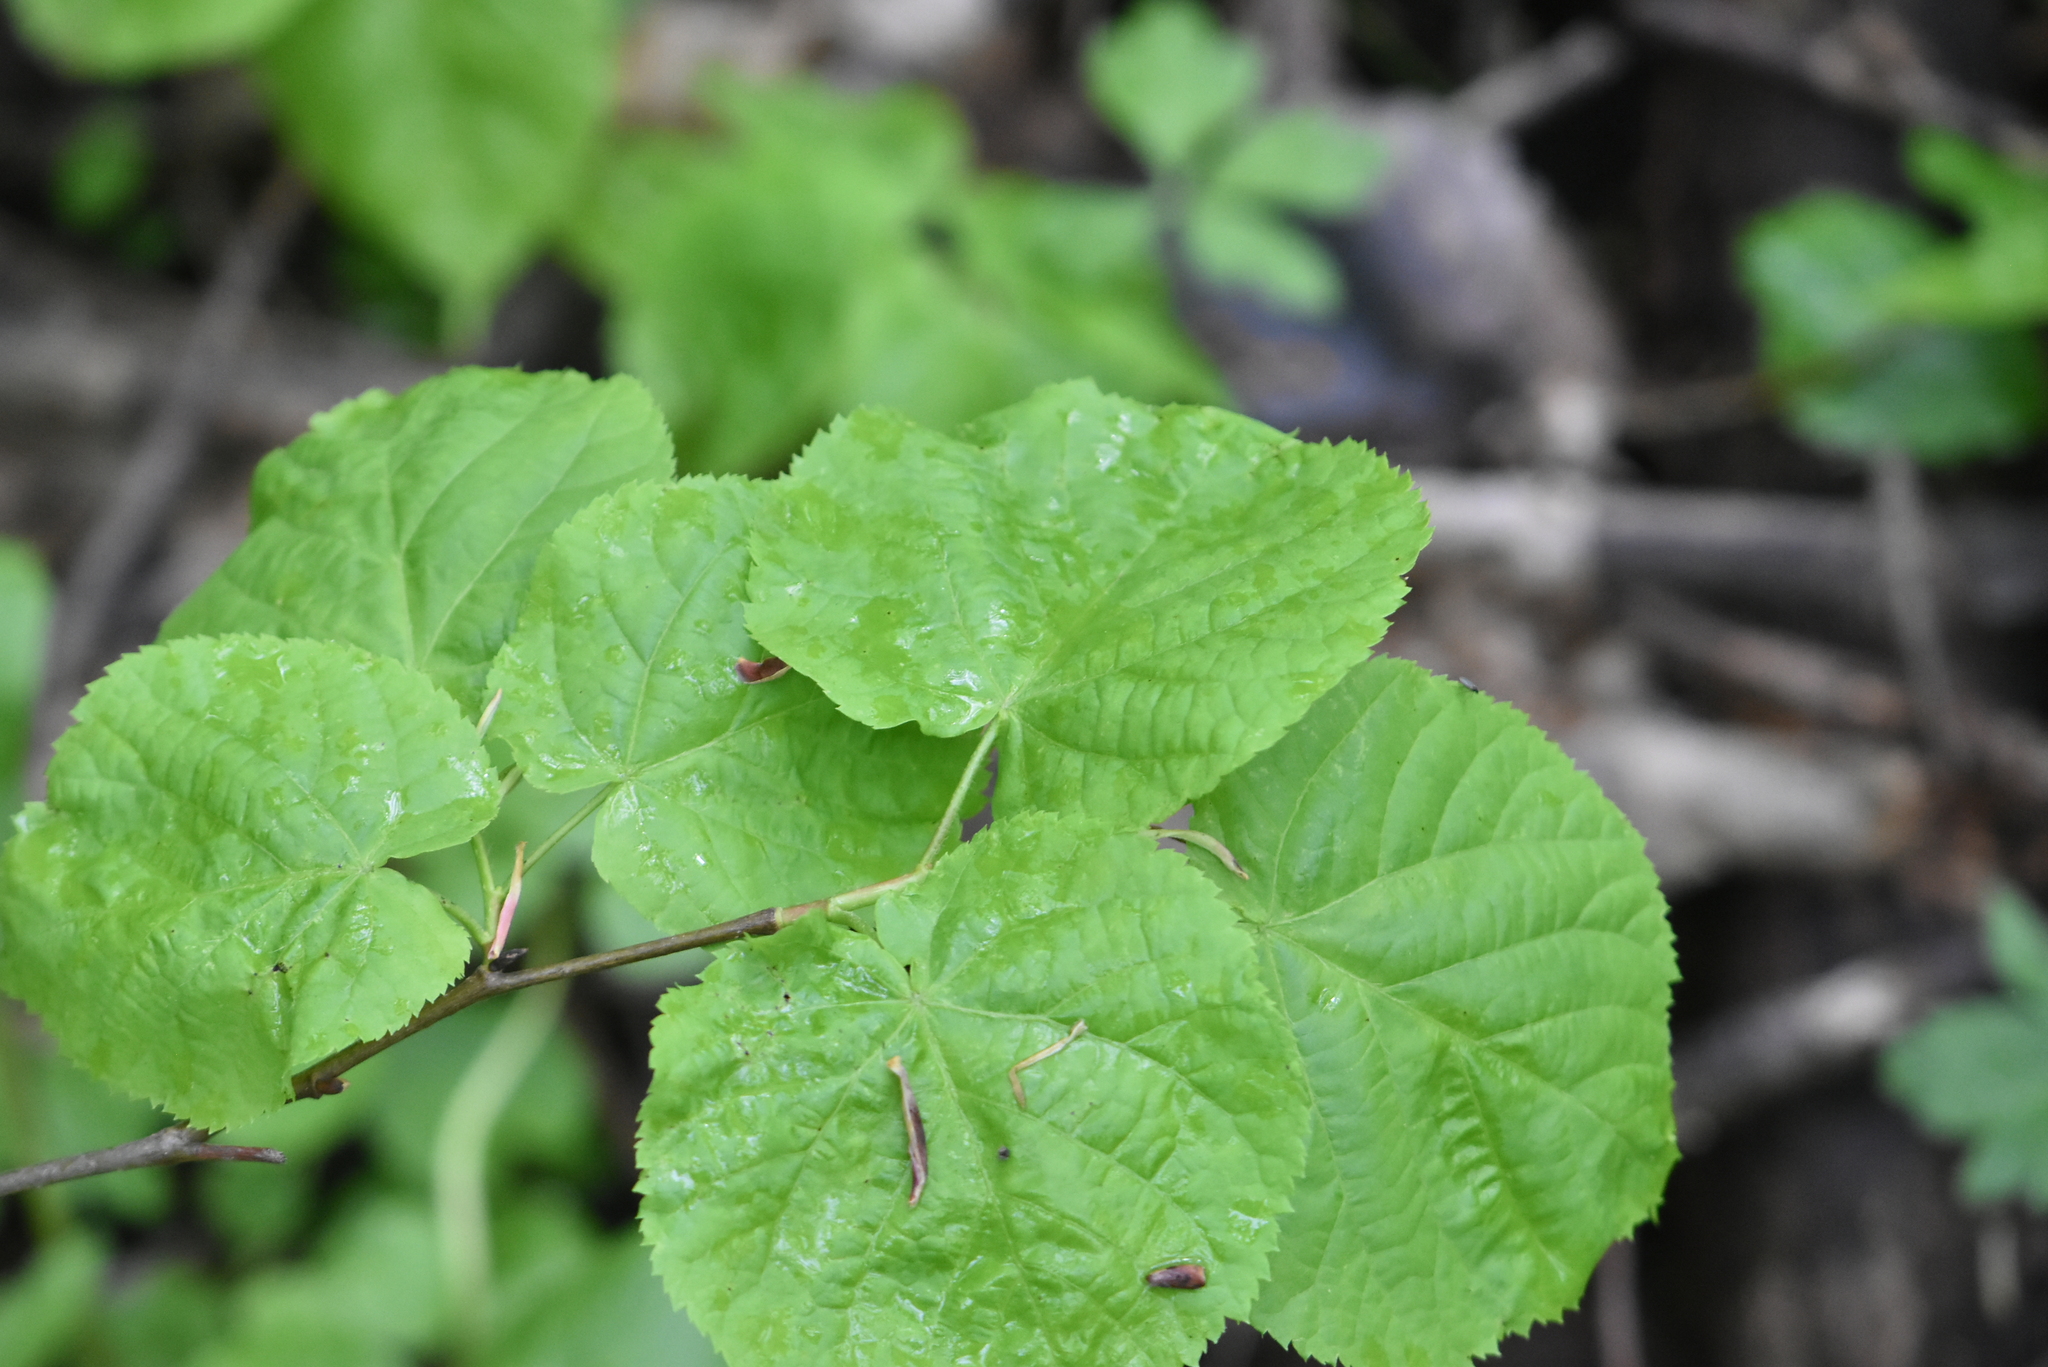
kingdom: Plantae
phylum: Tracheophyta
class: Magnoliopsida
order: Malvales
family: Malvaceae
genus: Tilia
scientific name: Tilia cordata
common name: Small-leaved lime
